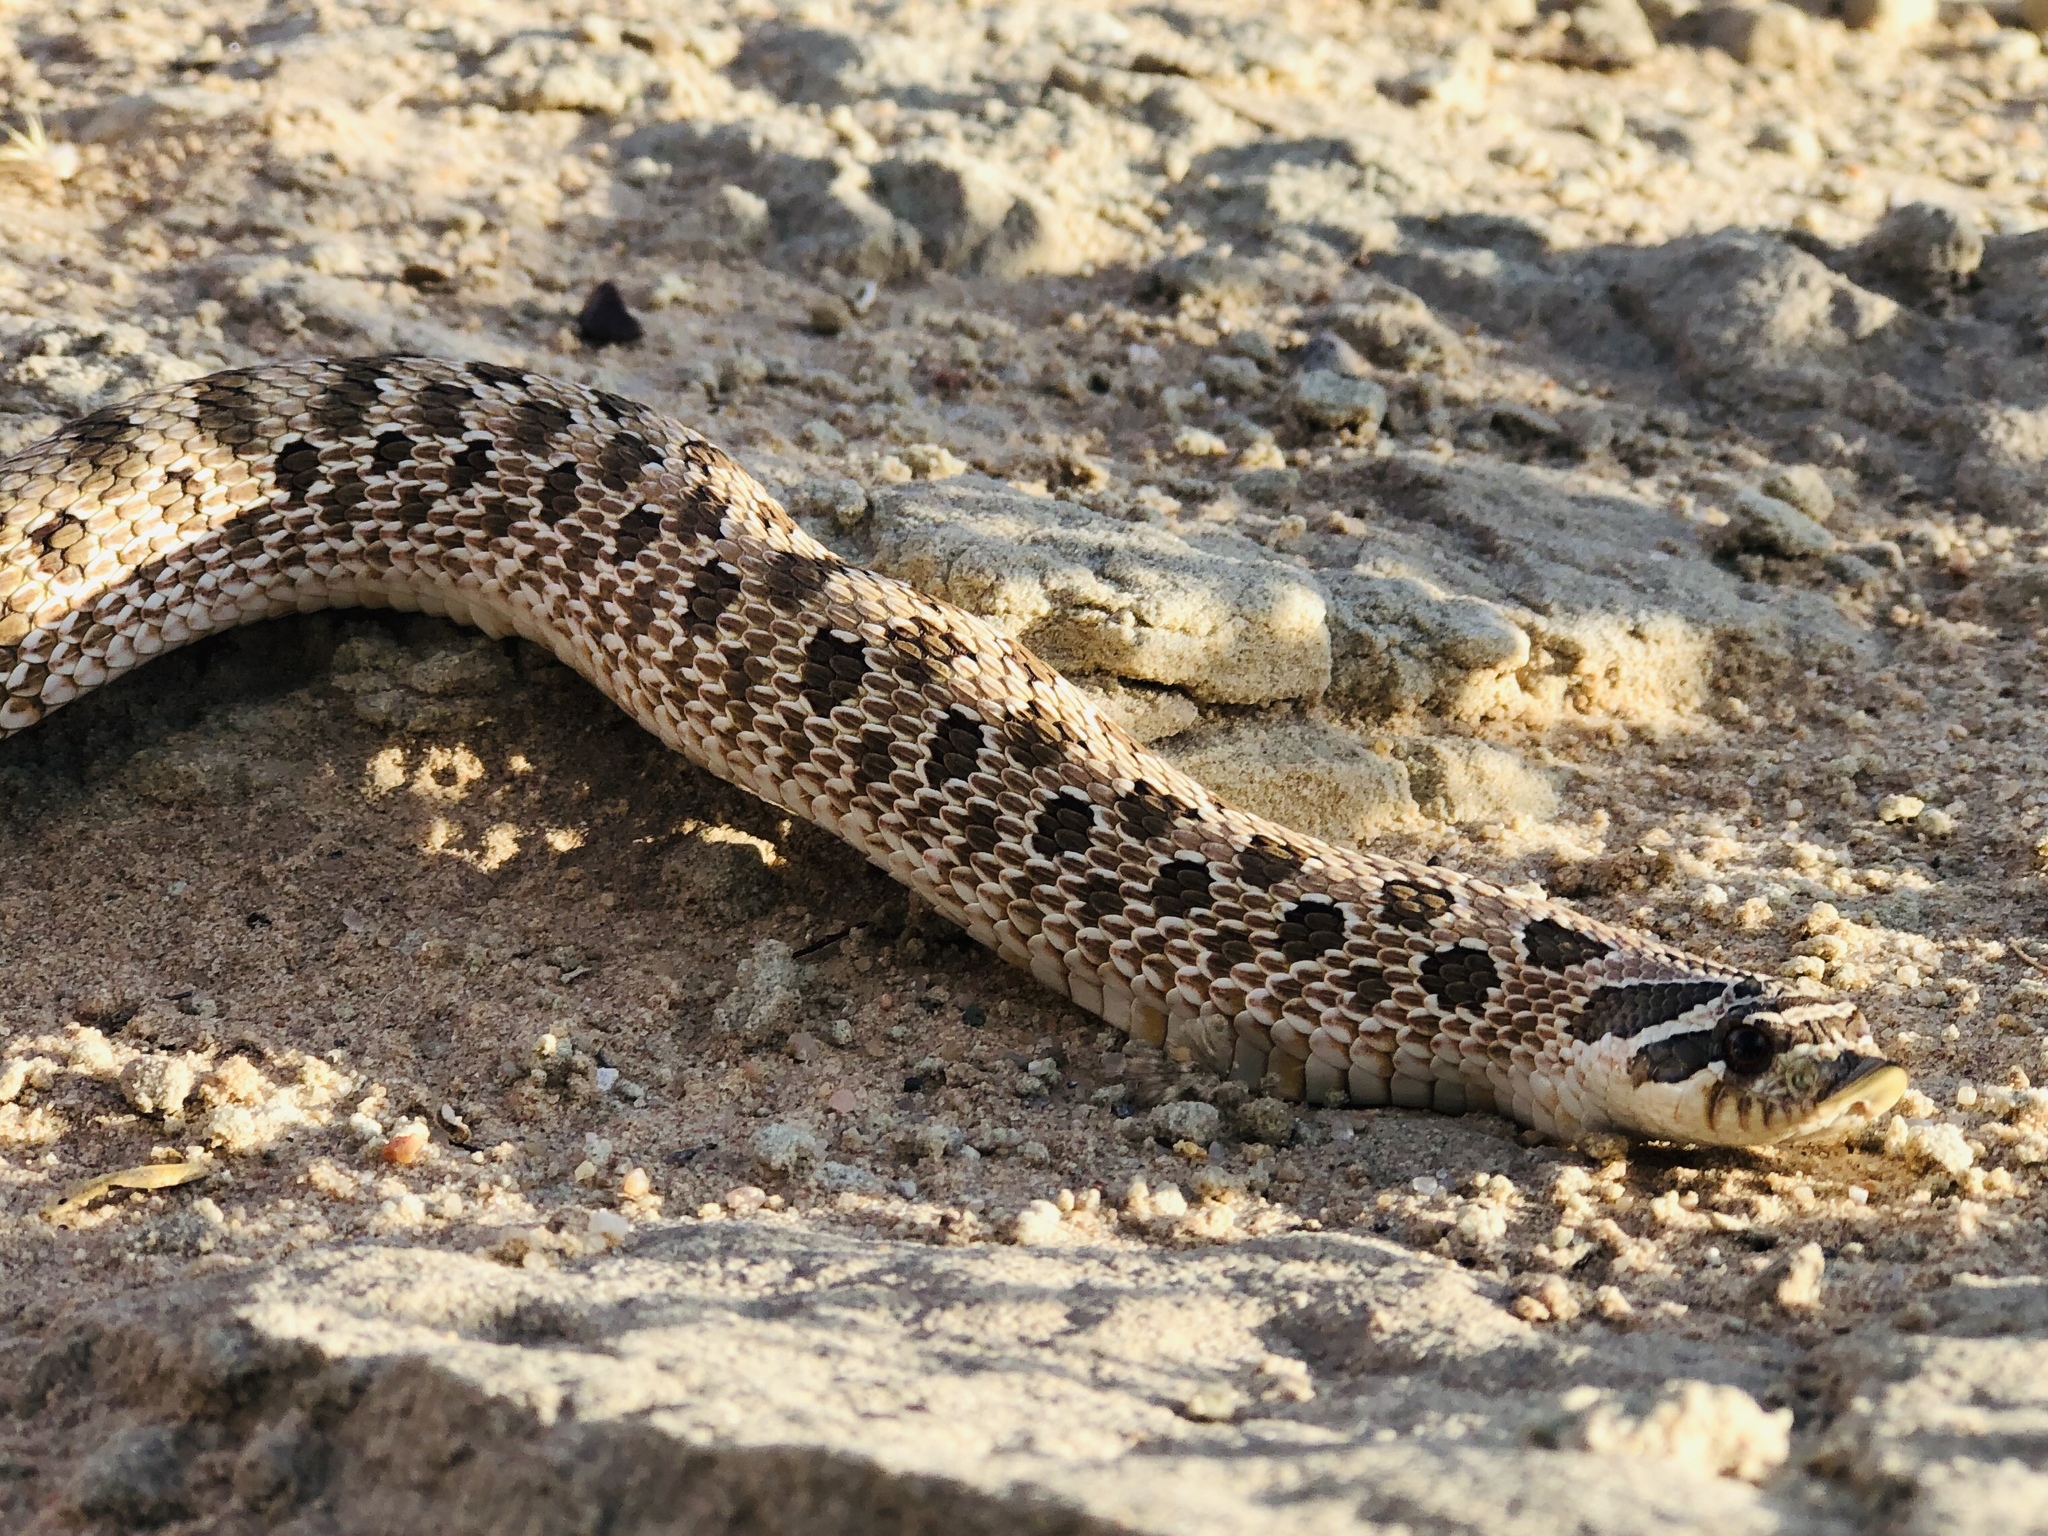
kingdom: Animalia
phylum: Chordata
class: Squamata
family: Colubridae
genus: Heterodon
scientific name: Heterodon nasicus
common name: Western hognose snake
